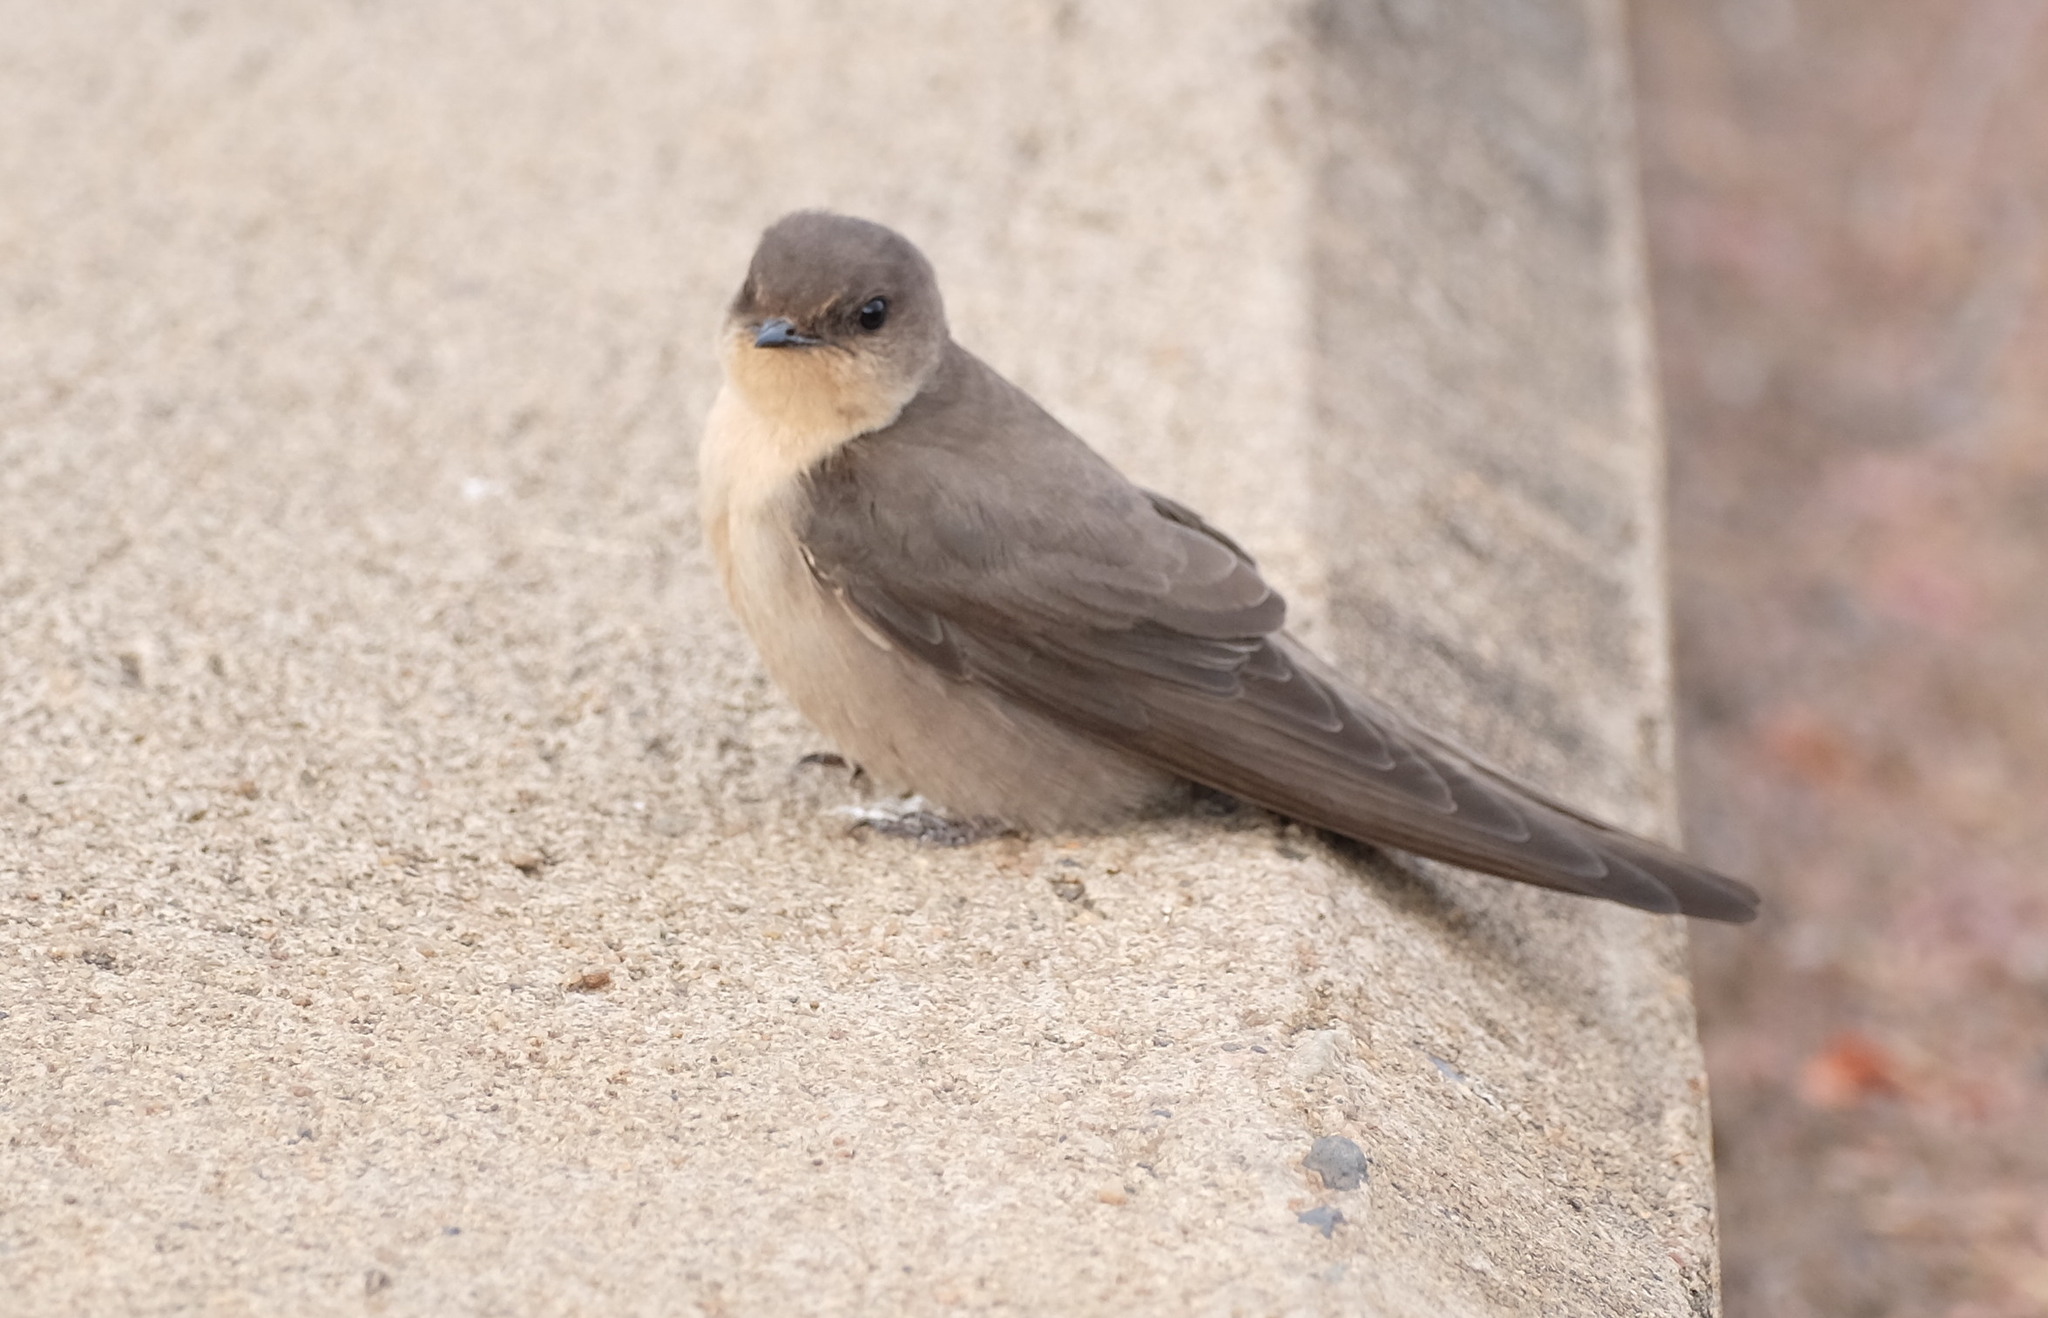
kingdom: Animalia
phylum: Chordata
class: Aves
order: Passeriformes
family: Hirundinidae
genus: Ptyonoprogne
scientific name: Ptyonoprogne fuligula
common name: Rock martin
